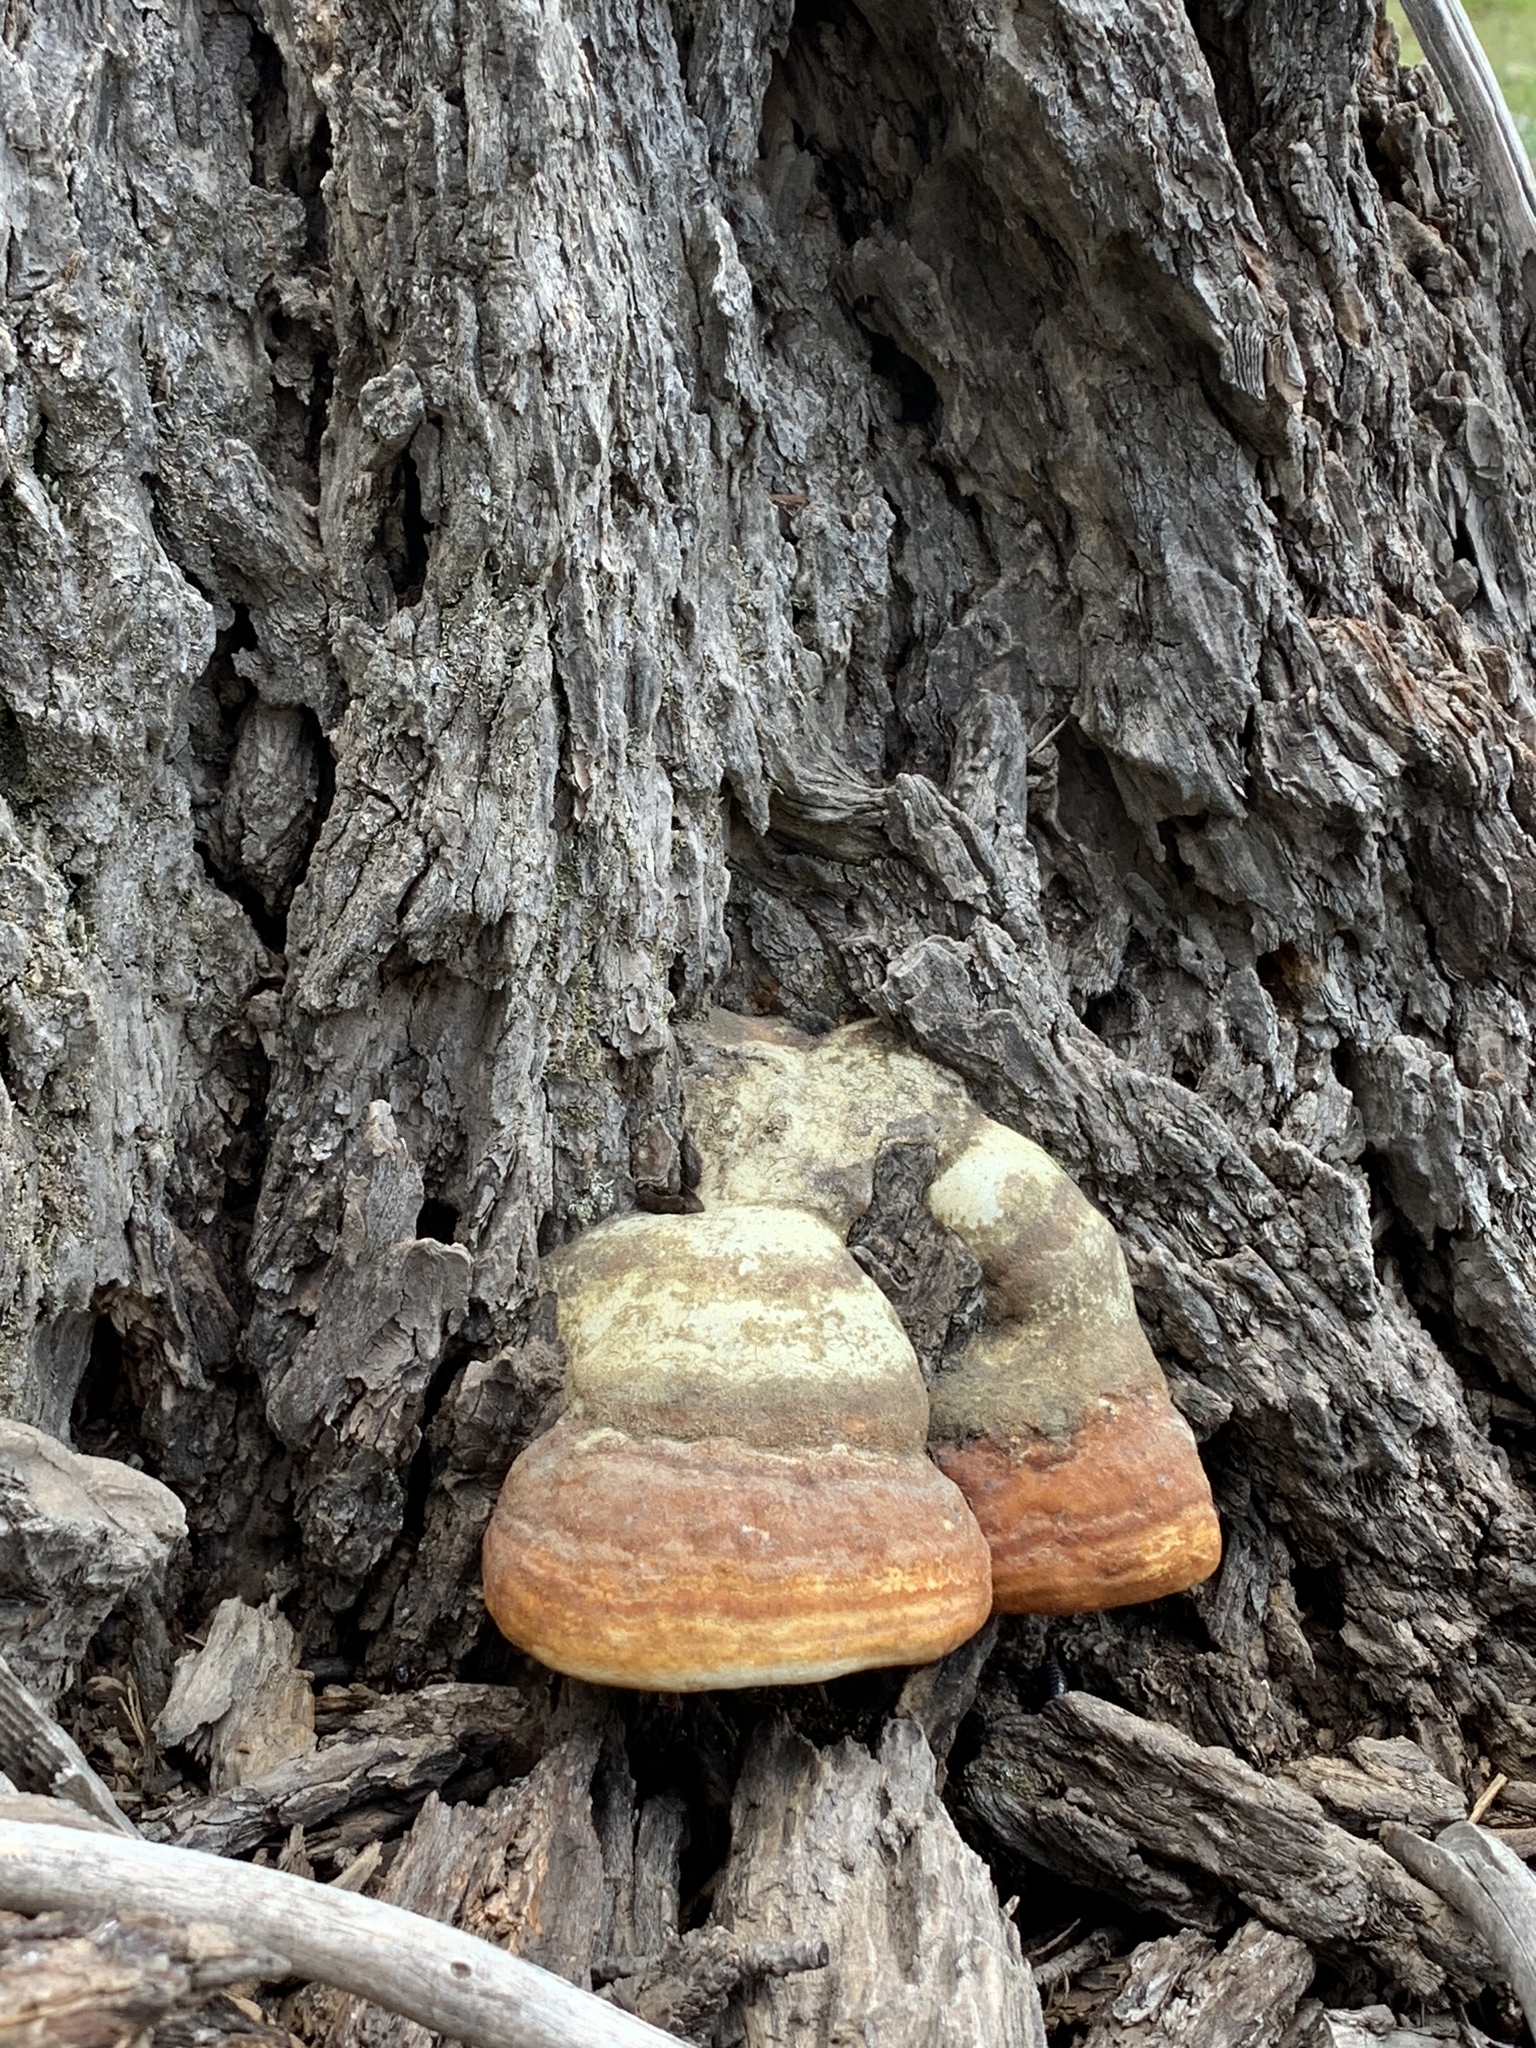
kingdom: Fungi
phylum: Basidiomycota
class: Agaricomycetes
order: Polyporales
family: Fomitopsidaceae
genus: Fomitopsis
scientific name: Fomitopsis schrenkii
